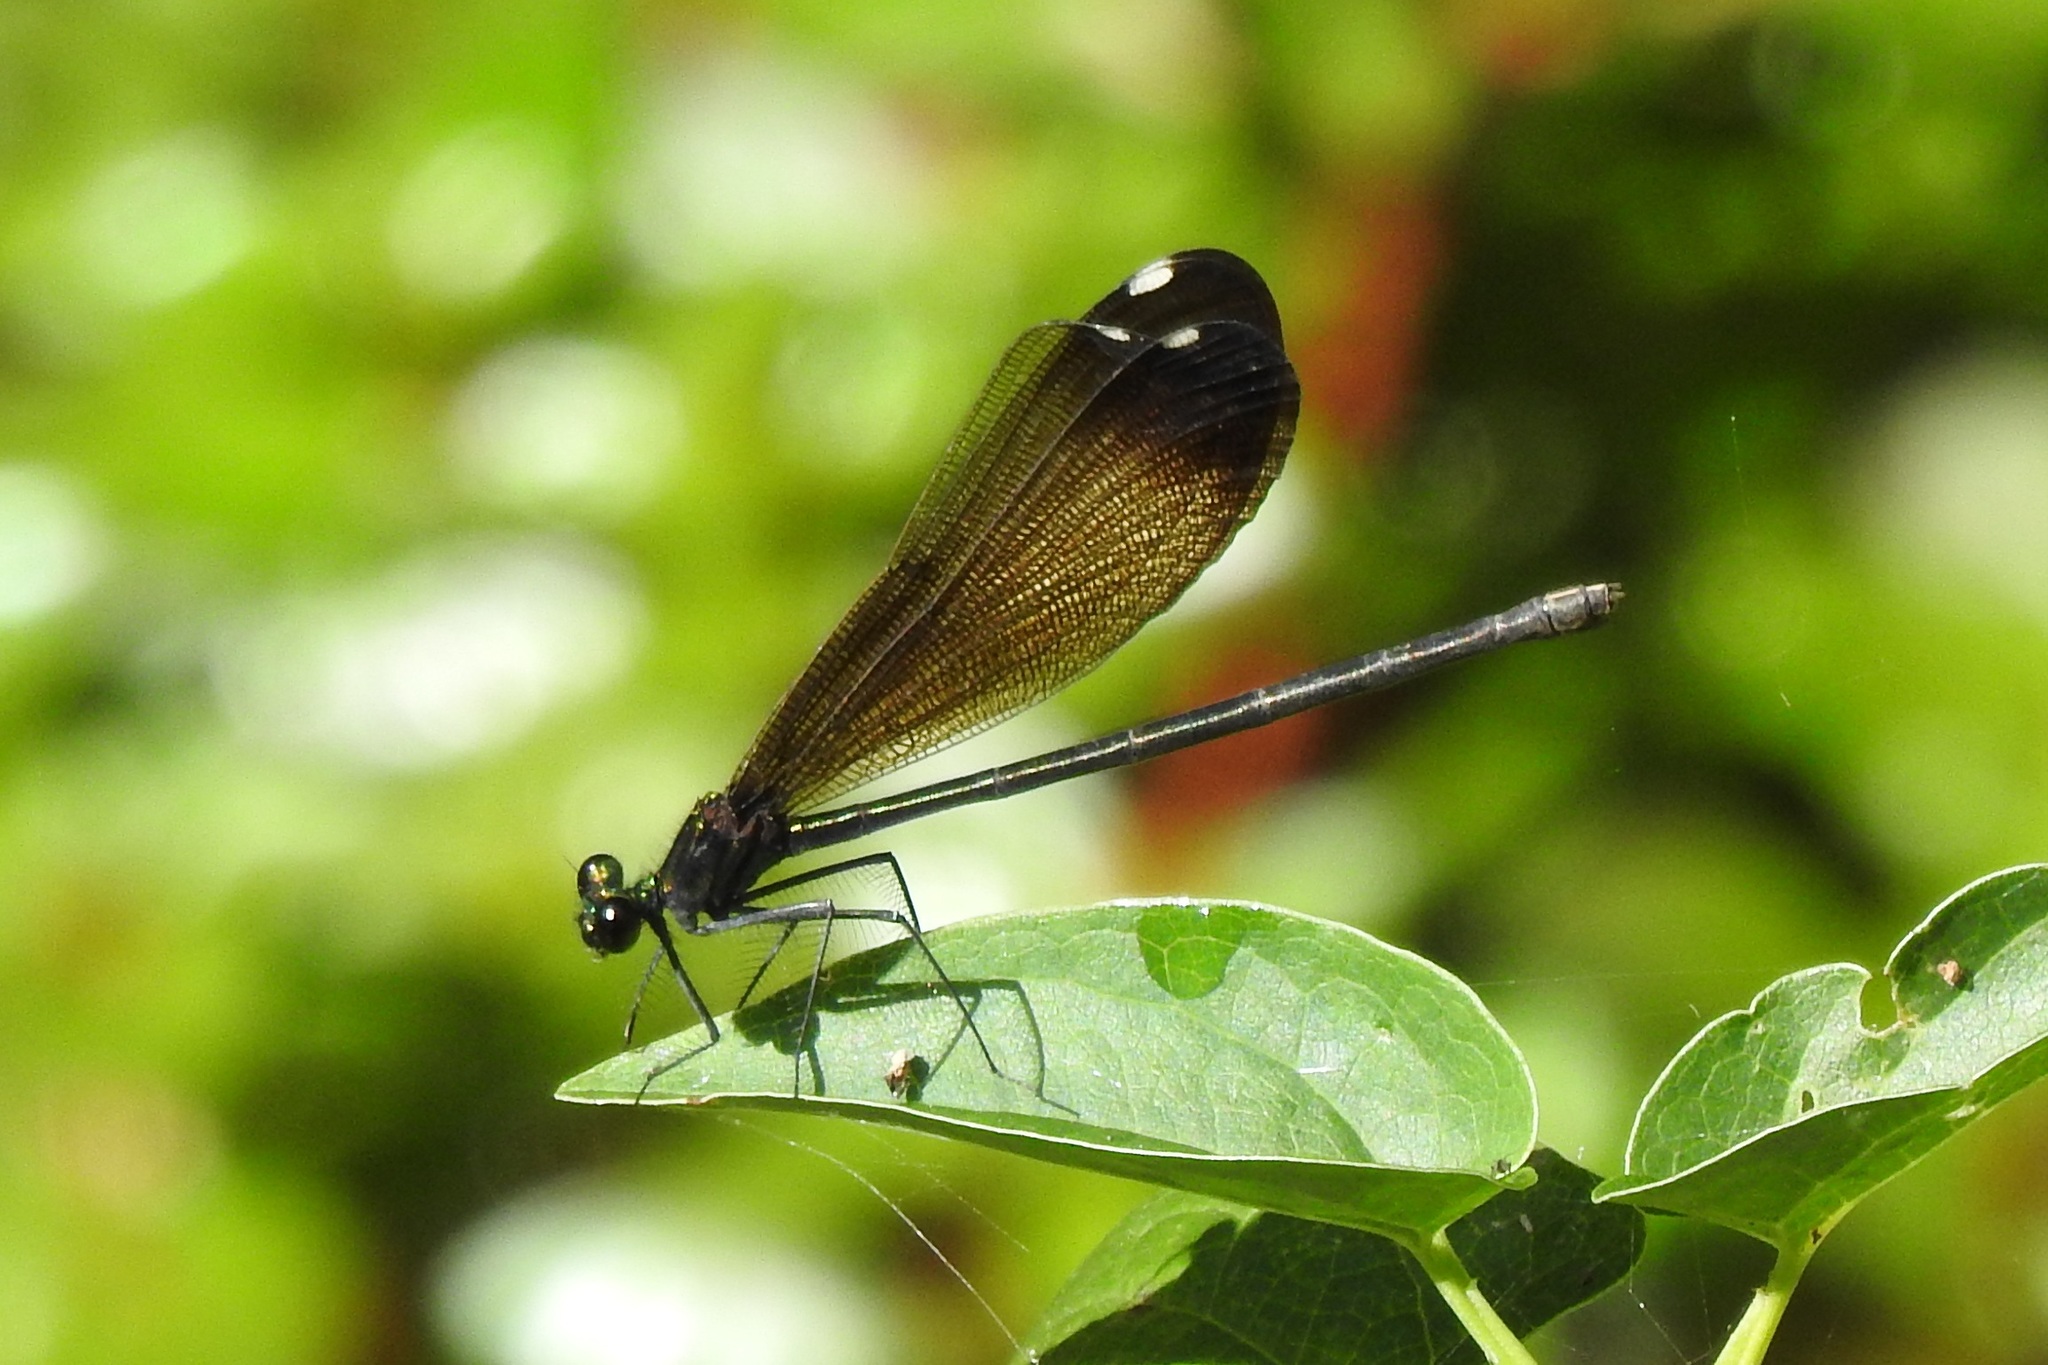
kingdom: Animalia
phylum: Arthropoda
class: Insecta
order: Odonata
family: Calopterygidae
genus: Calopteryx
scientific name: Calopteryx maculata
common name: Ebony jewelwing
